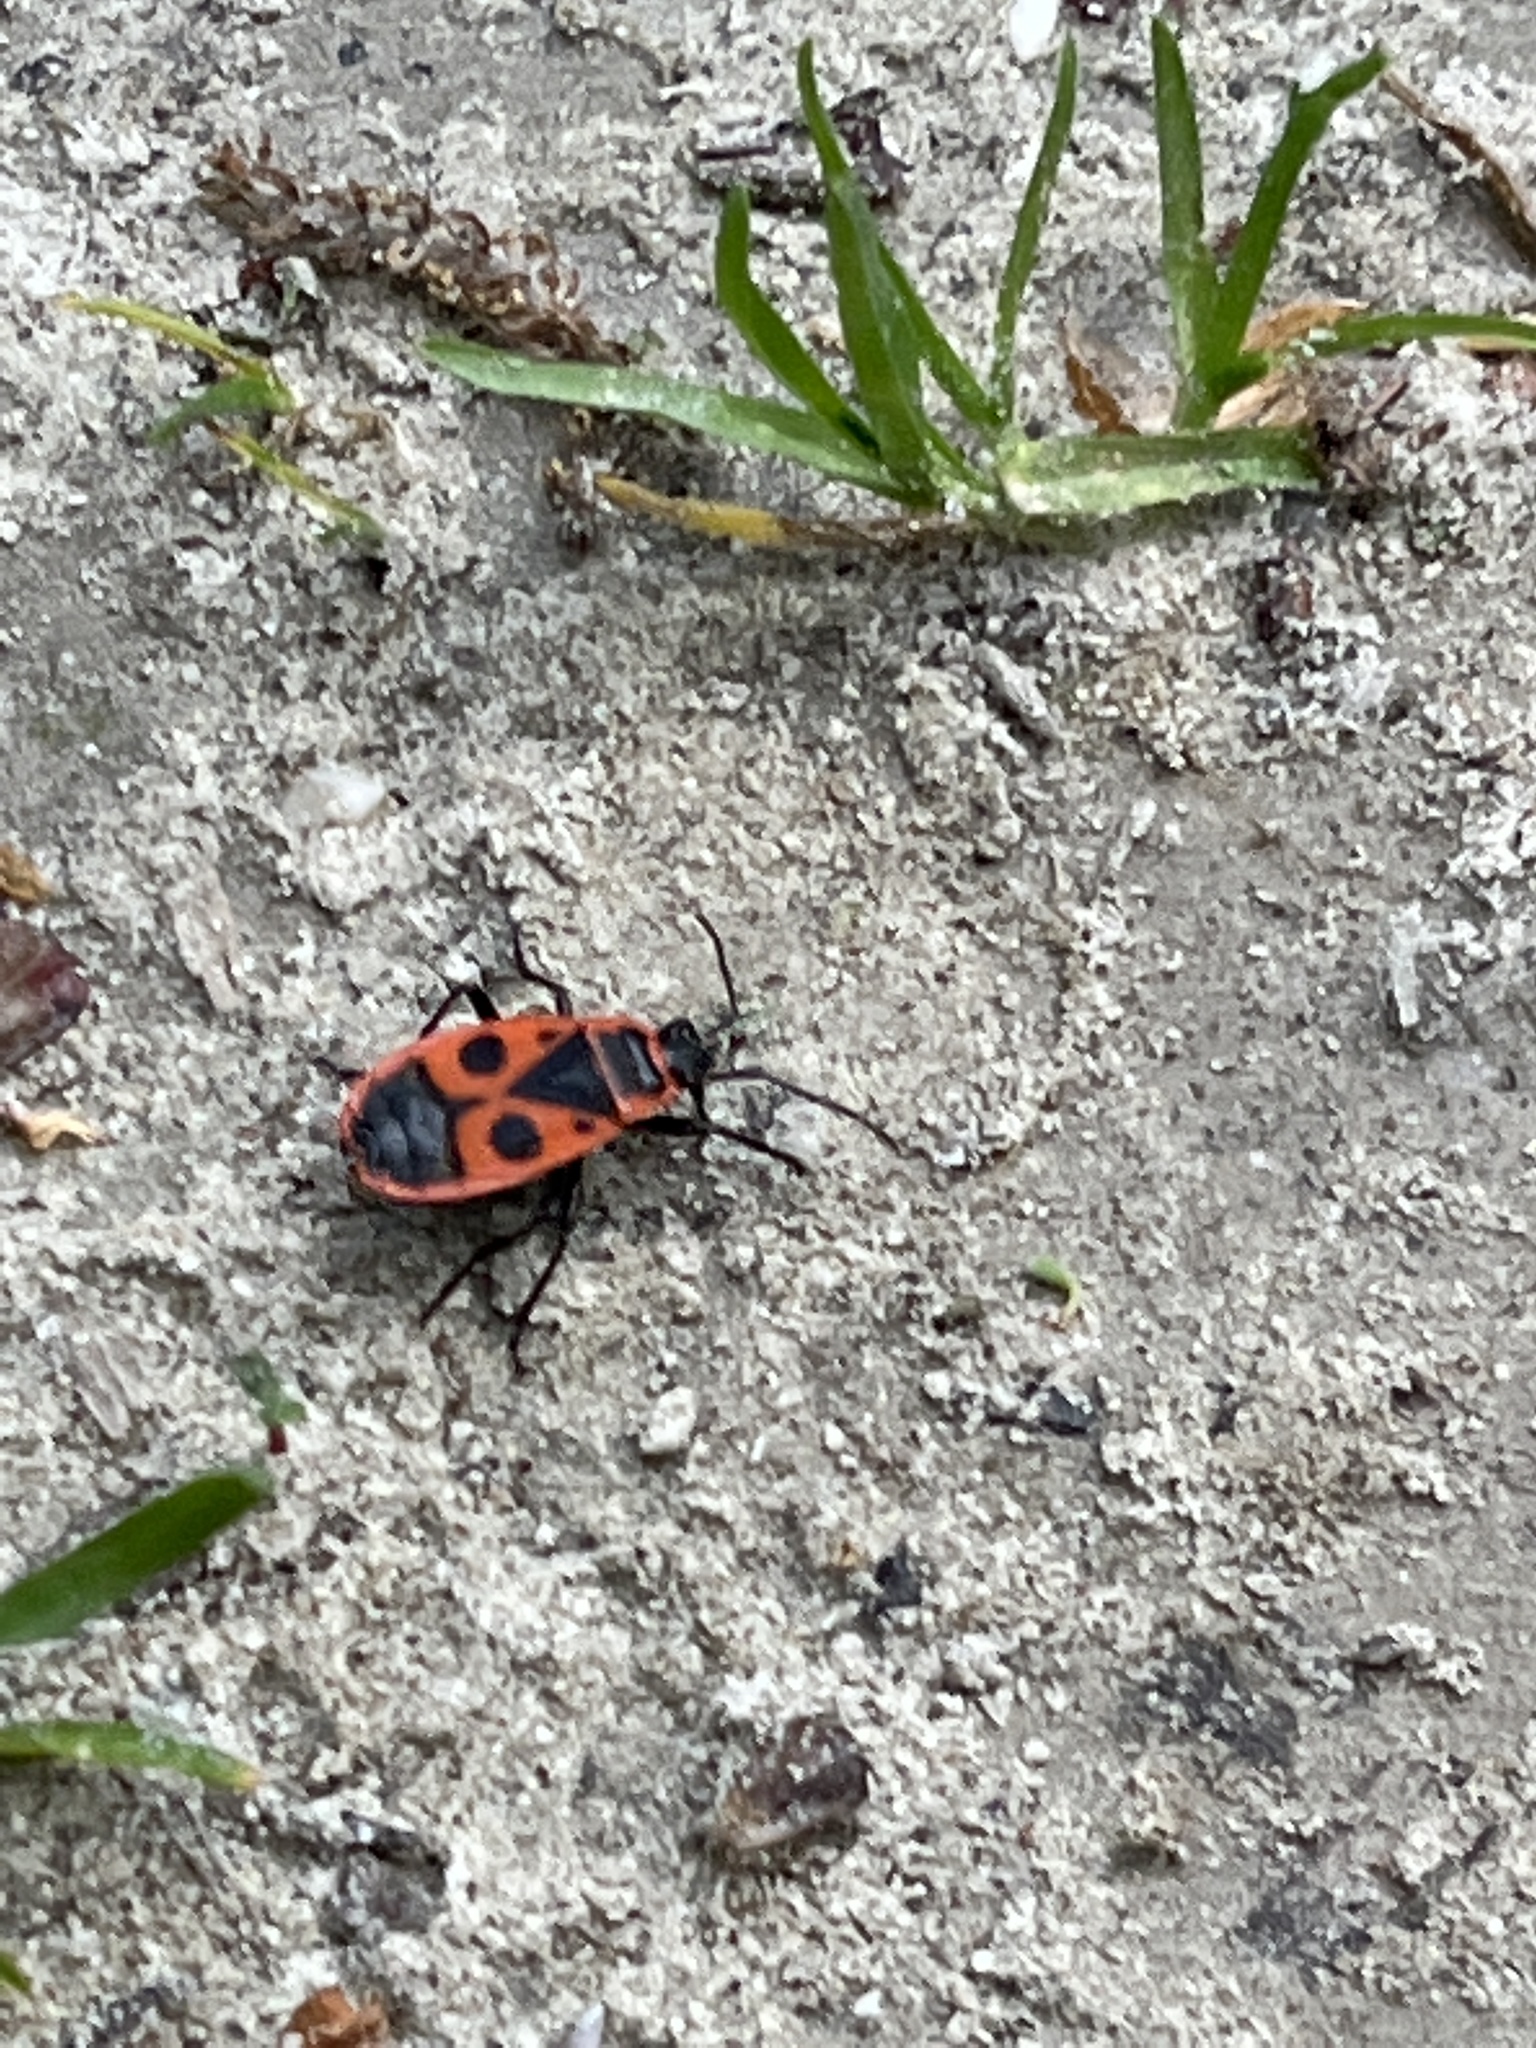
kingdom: Animalia
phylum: Arthropoda
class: Insecta
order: Hemiptera
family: Pyrrhocoridae
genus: Pyrrhocoris
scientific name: Pyrrhocoris apterus
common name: Firebug
